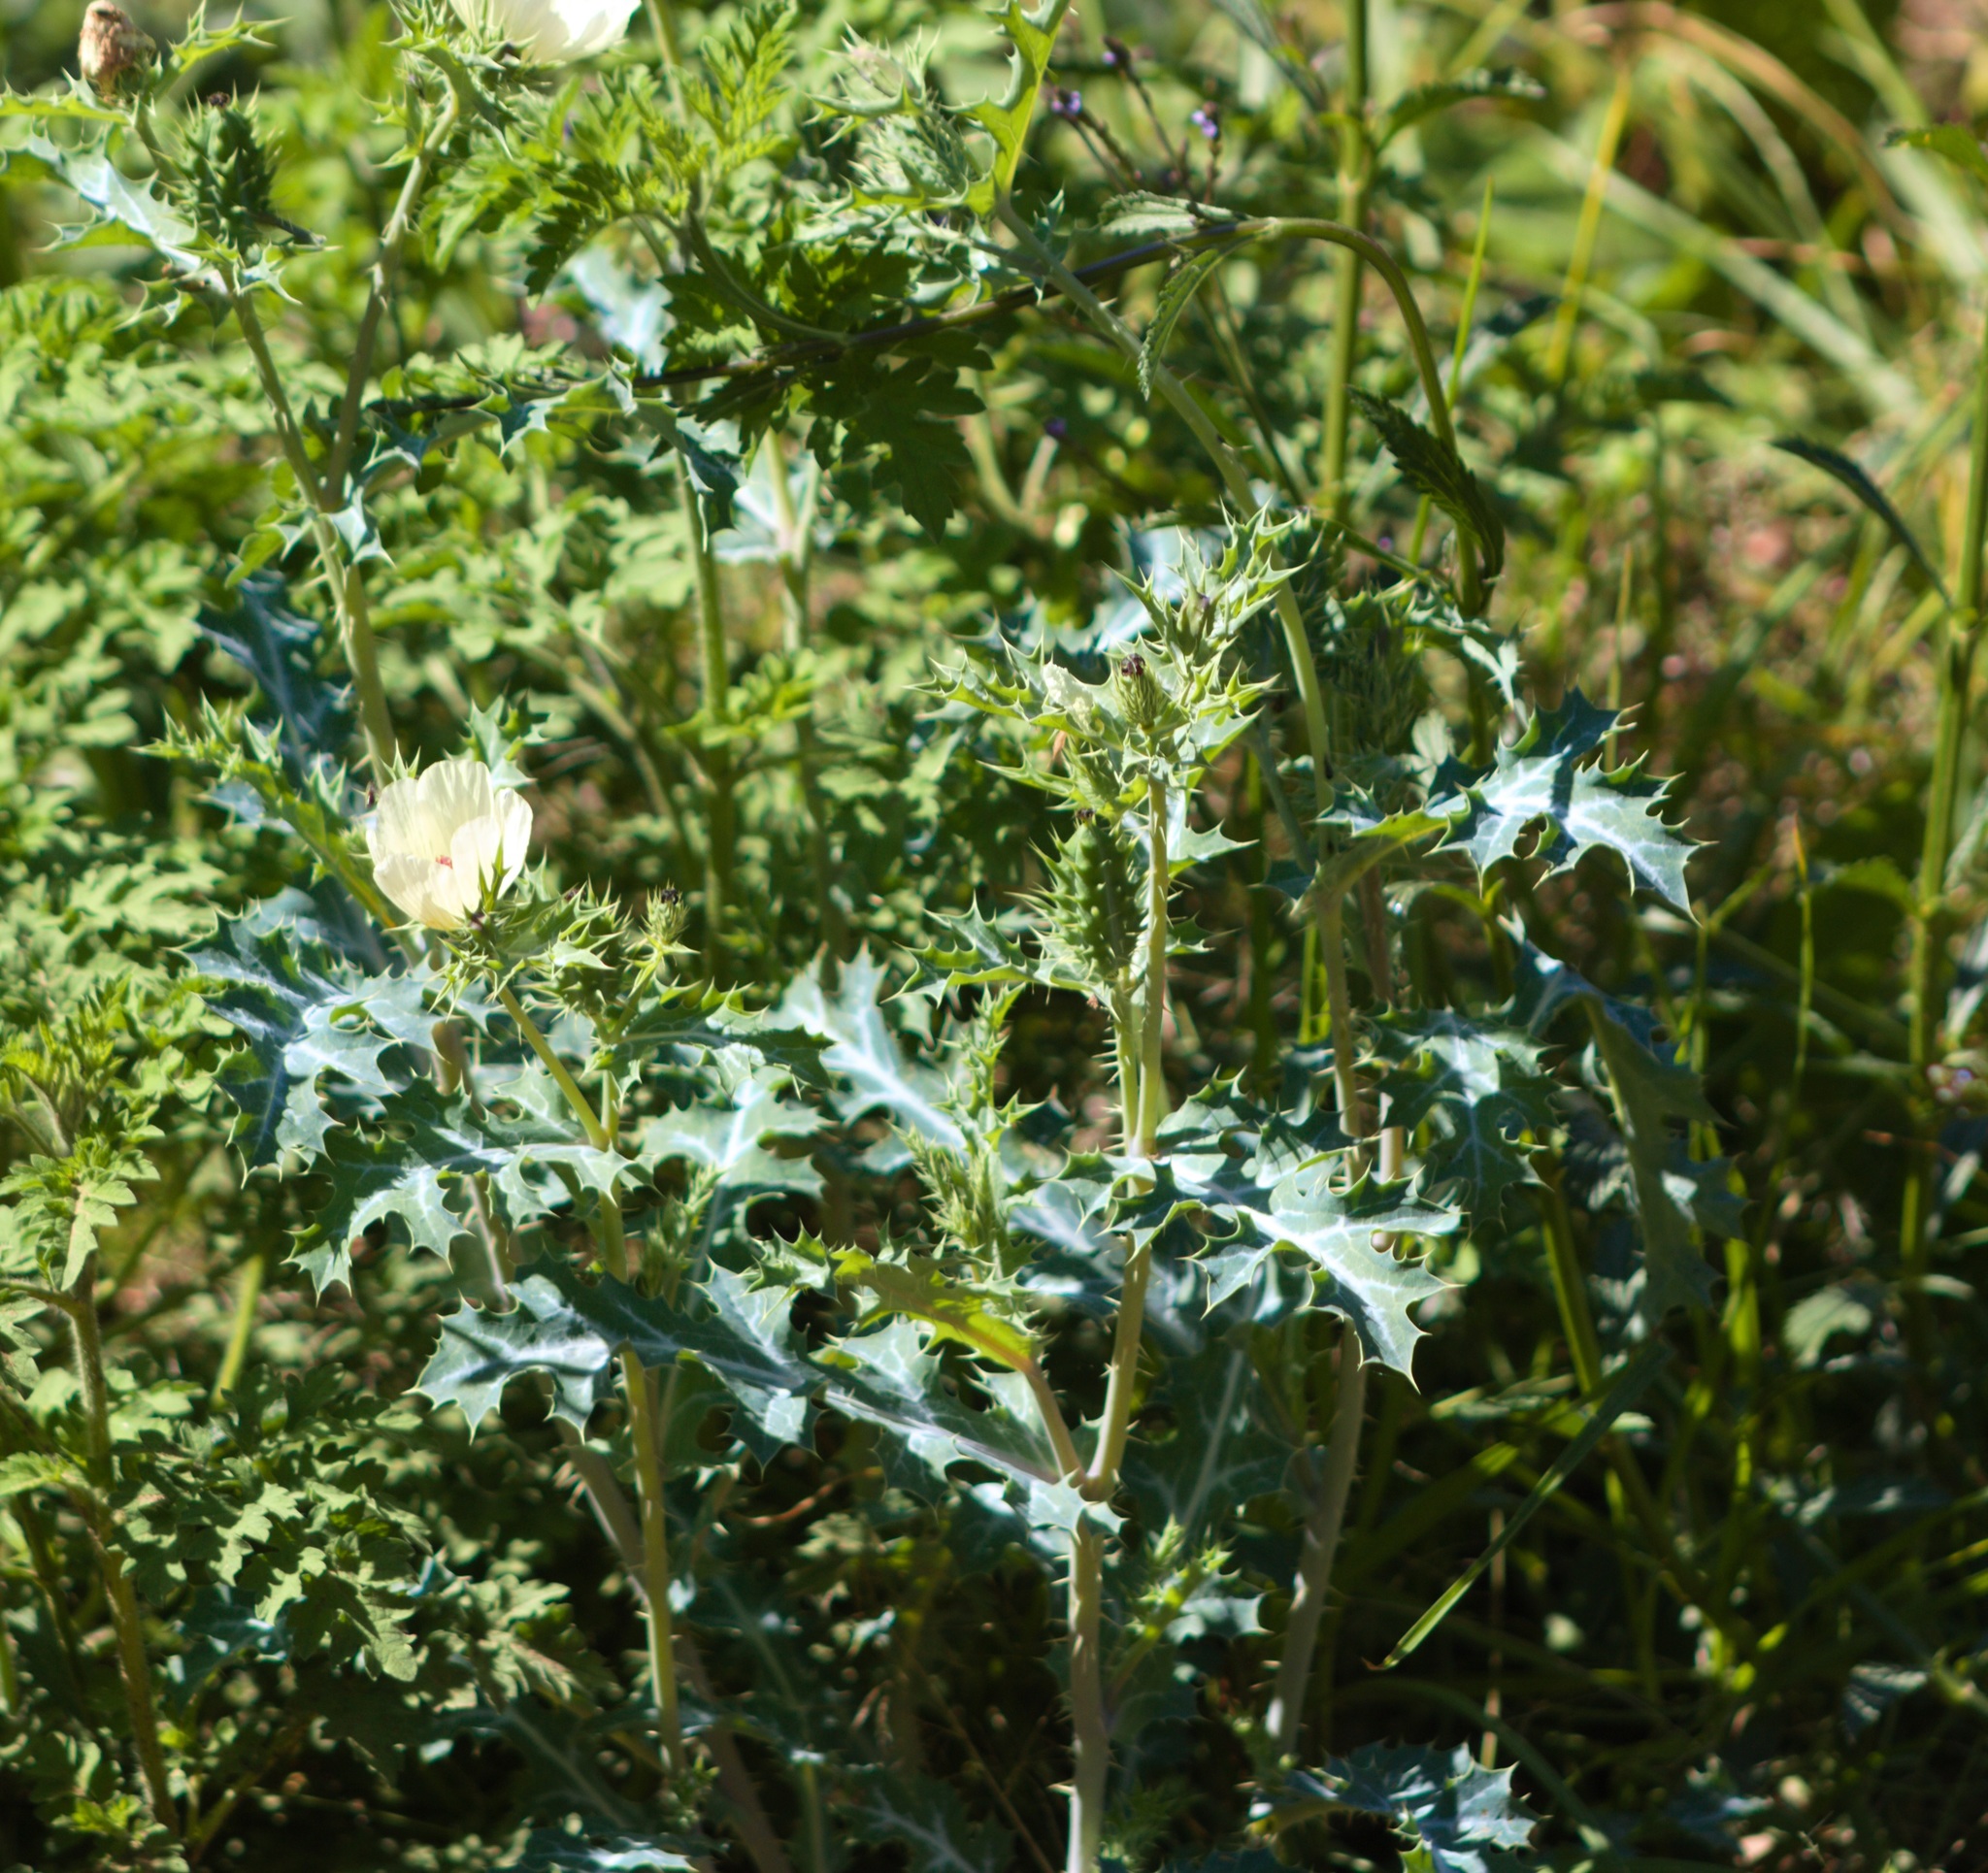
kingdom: Plantae
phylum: Tracheophyta
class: Magnoliopsida
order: Ranunculales
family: Papaveraceae
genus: Argemone
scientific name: Argemone ochroleuca
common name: White-flower mexican-poppy
